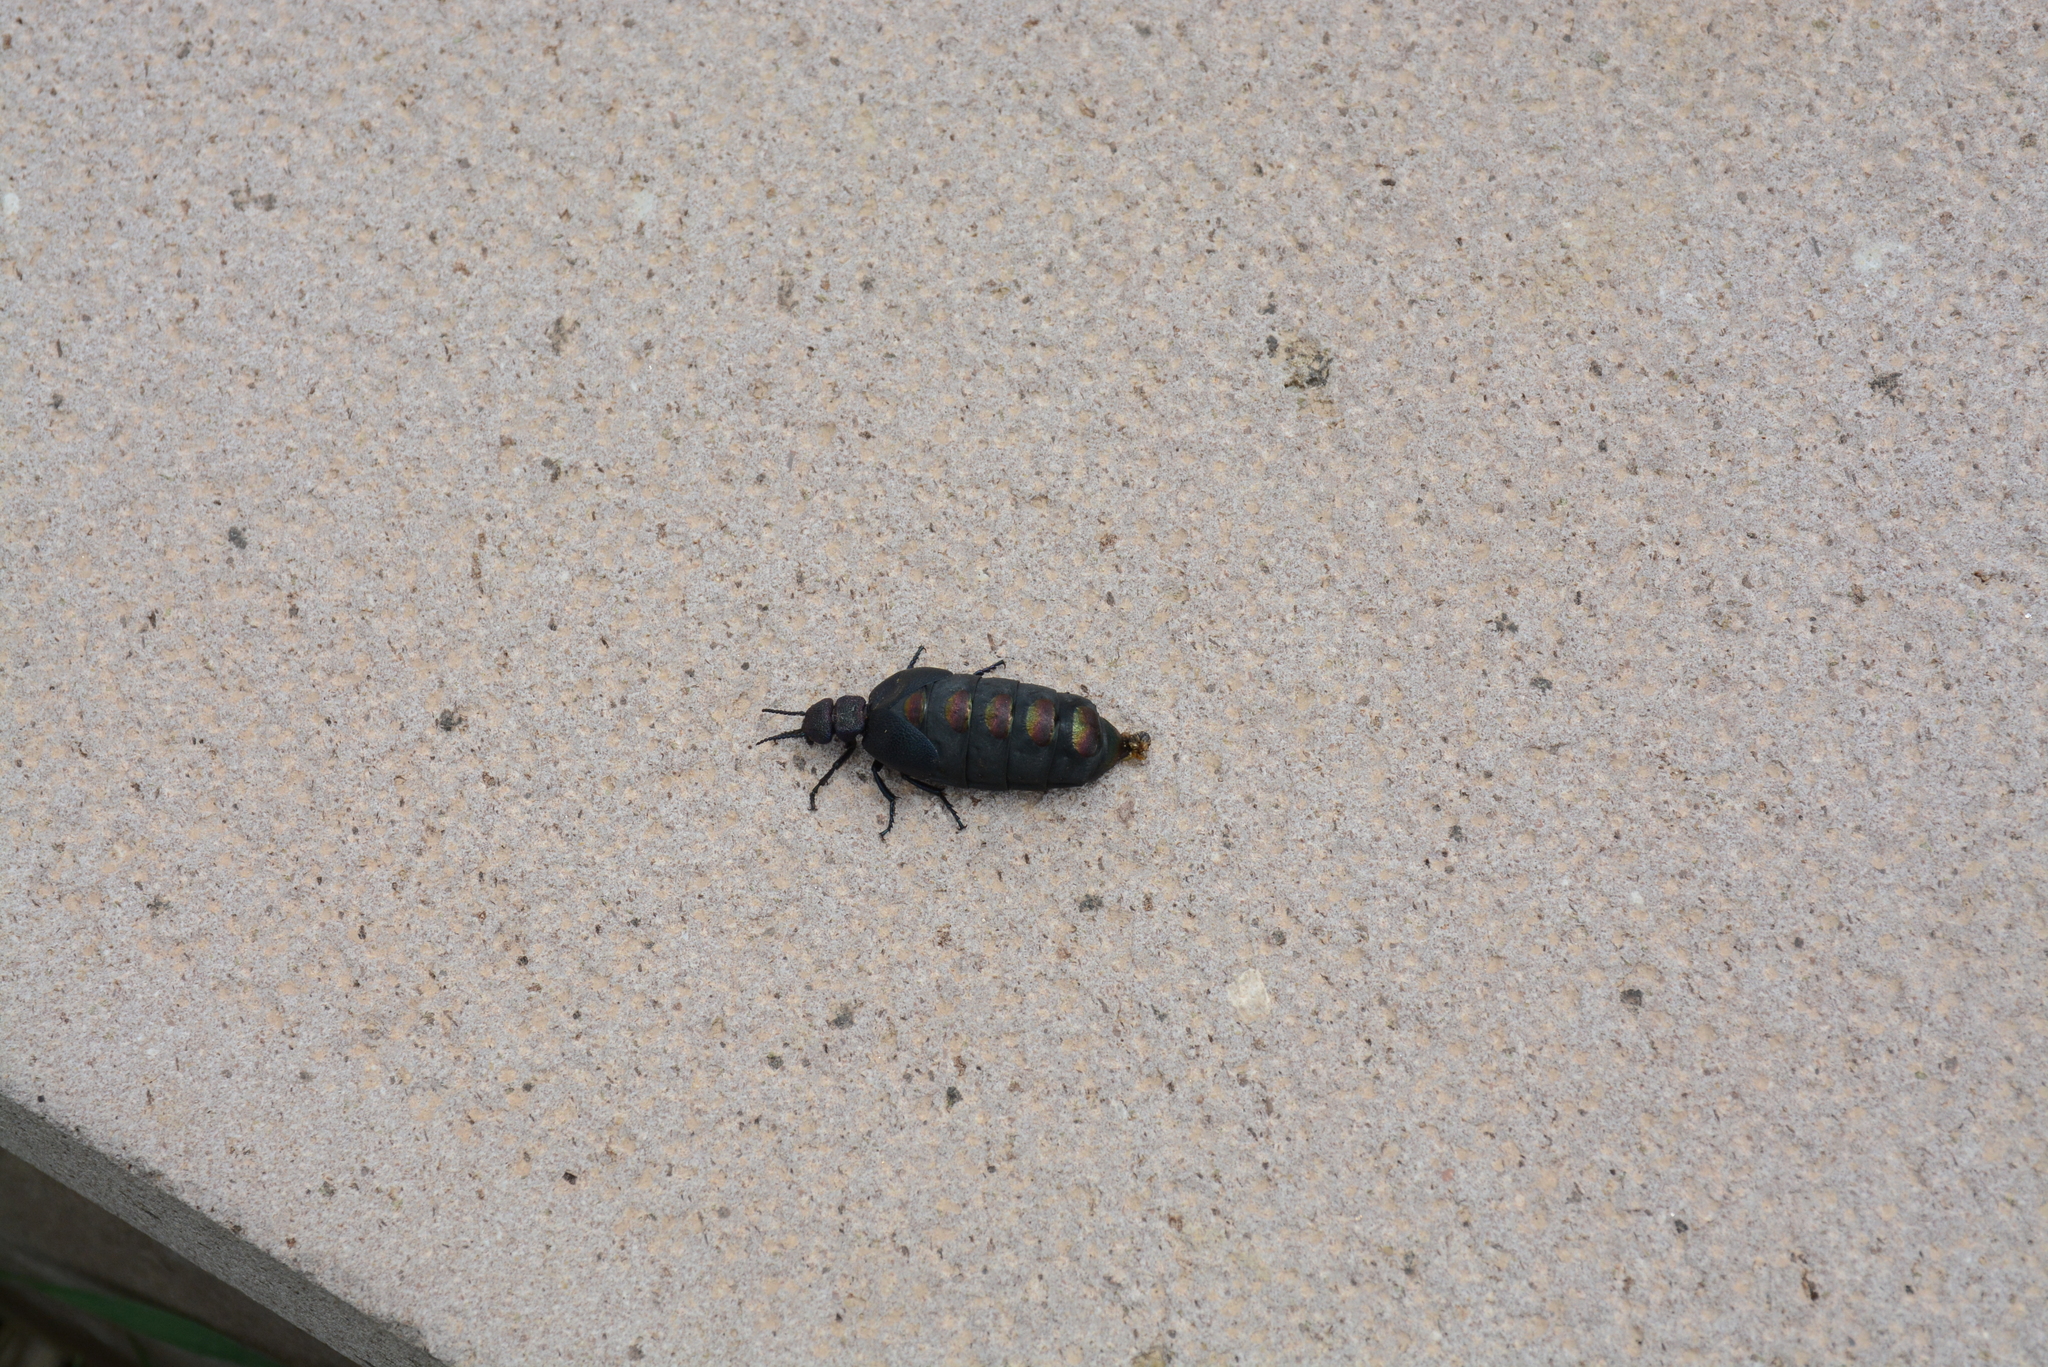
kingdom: Animalia
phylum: Arthropoda
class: Insecta
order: Coleoptera
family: Meloidae
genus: Meloe
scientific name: Meloe variegatus
